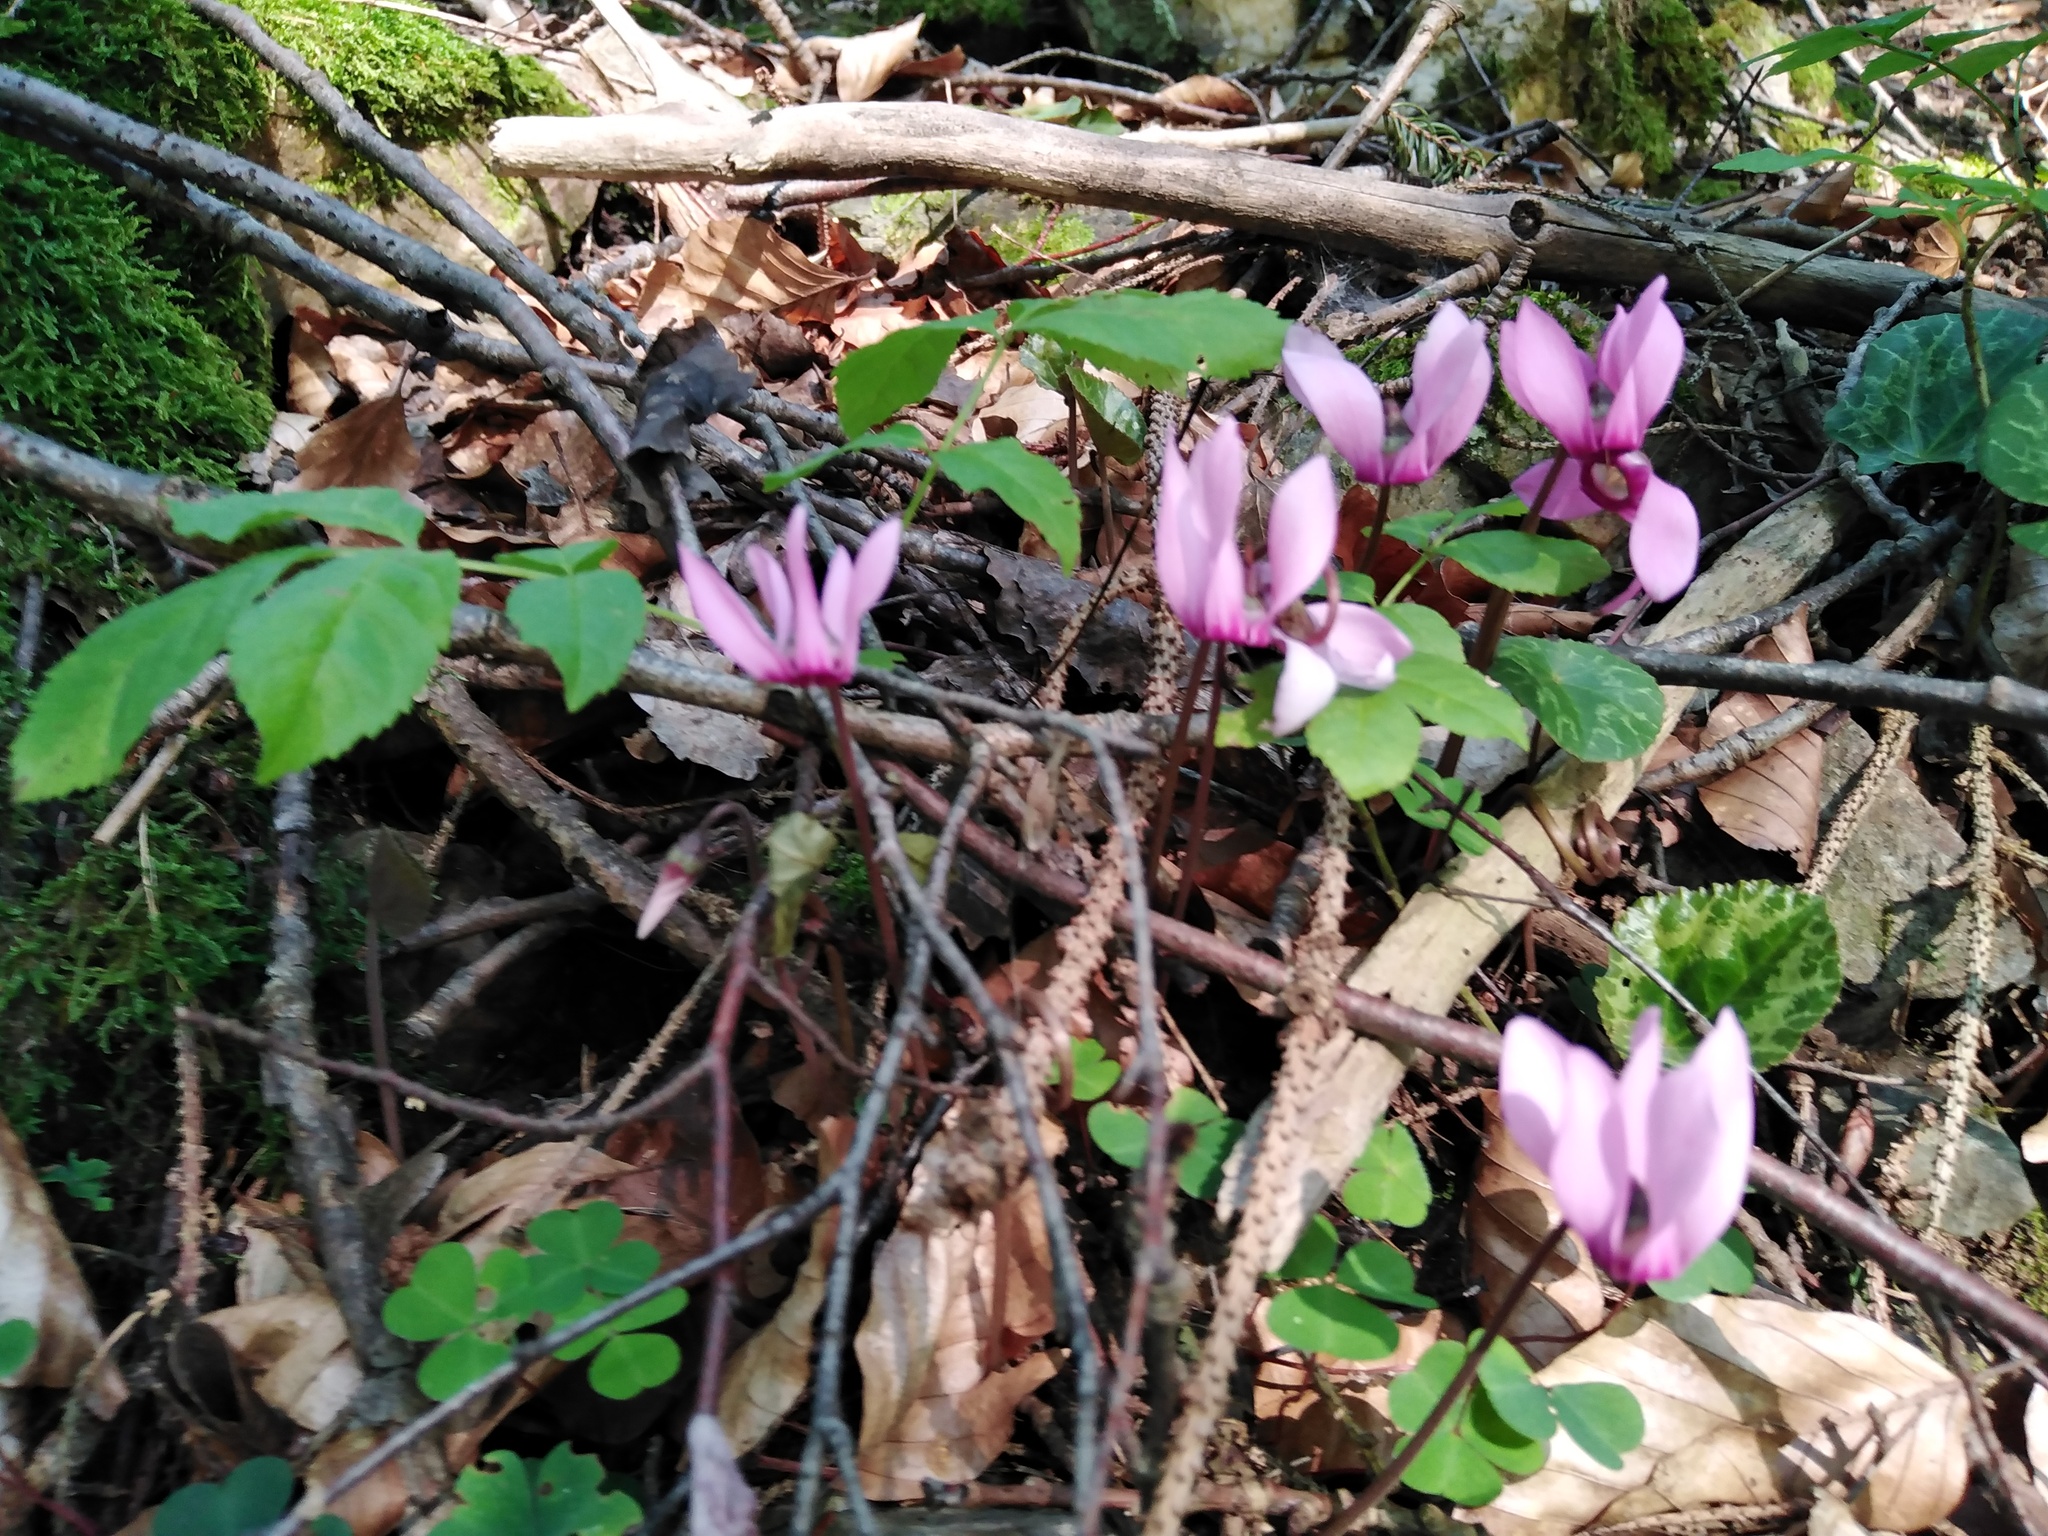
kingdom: Plantae
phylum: Tracheophyta
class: Magnoliopsida
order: Ericales
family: Primulaceae
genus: Cyclamen
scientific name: Cyclamen purpurascens
